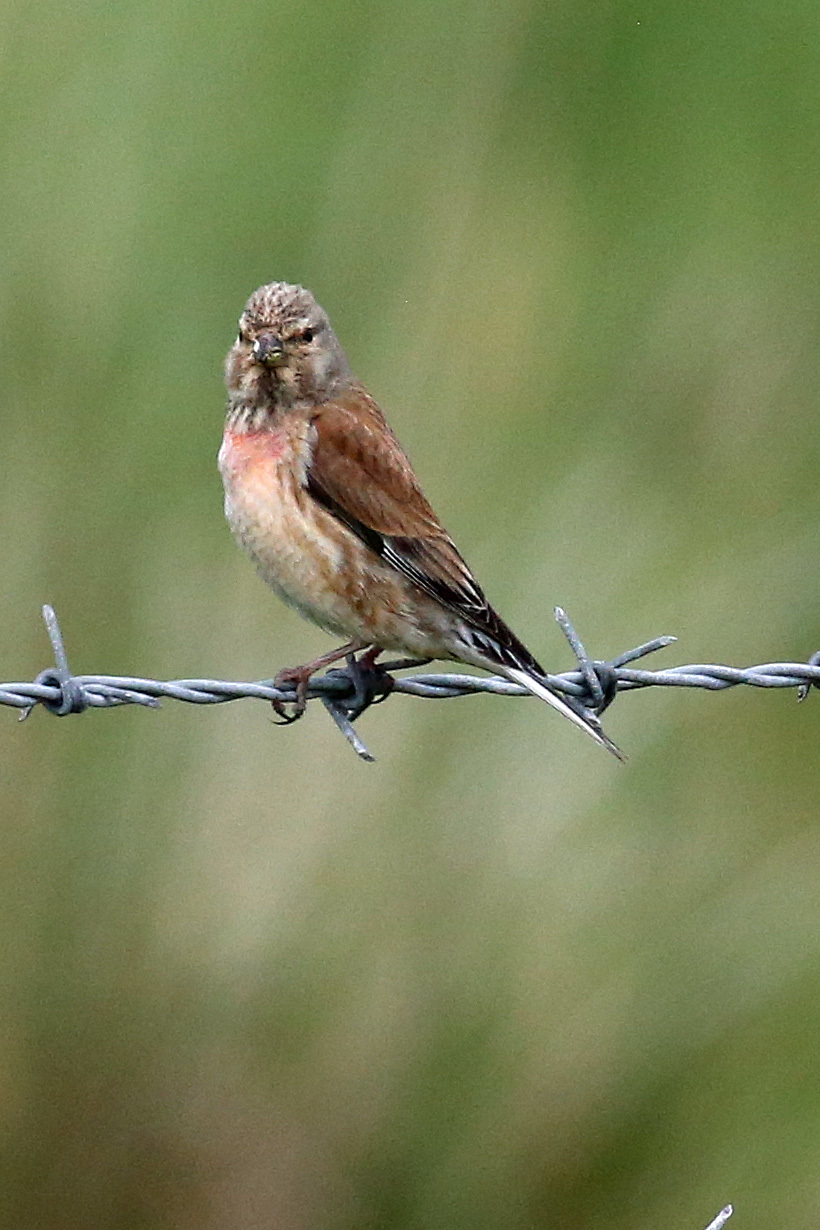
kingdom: Animalia
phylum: Chordata
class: Aves
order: Passeriformes
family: Fringillidae
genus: Linaria
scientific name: Linaria cannabina
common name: Common linnet
